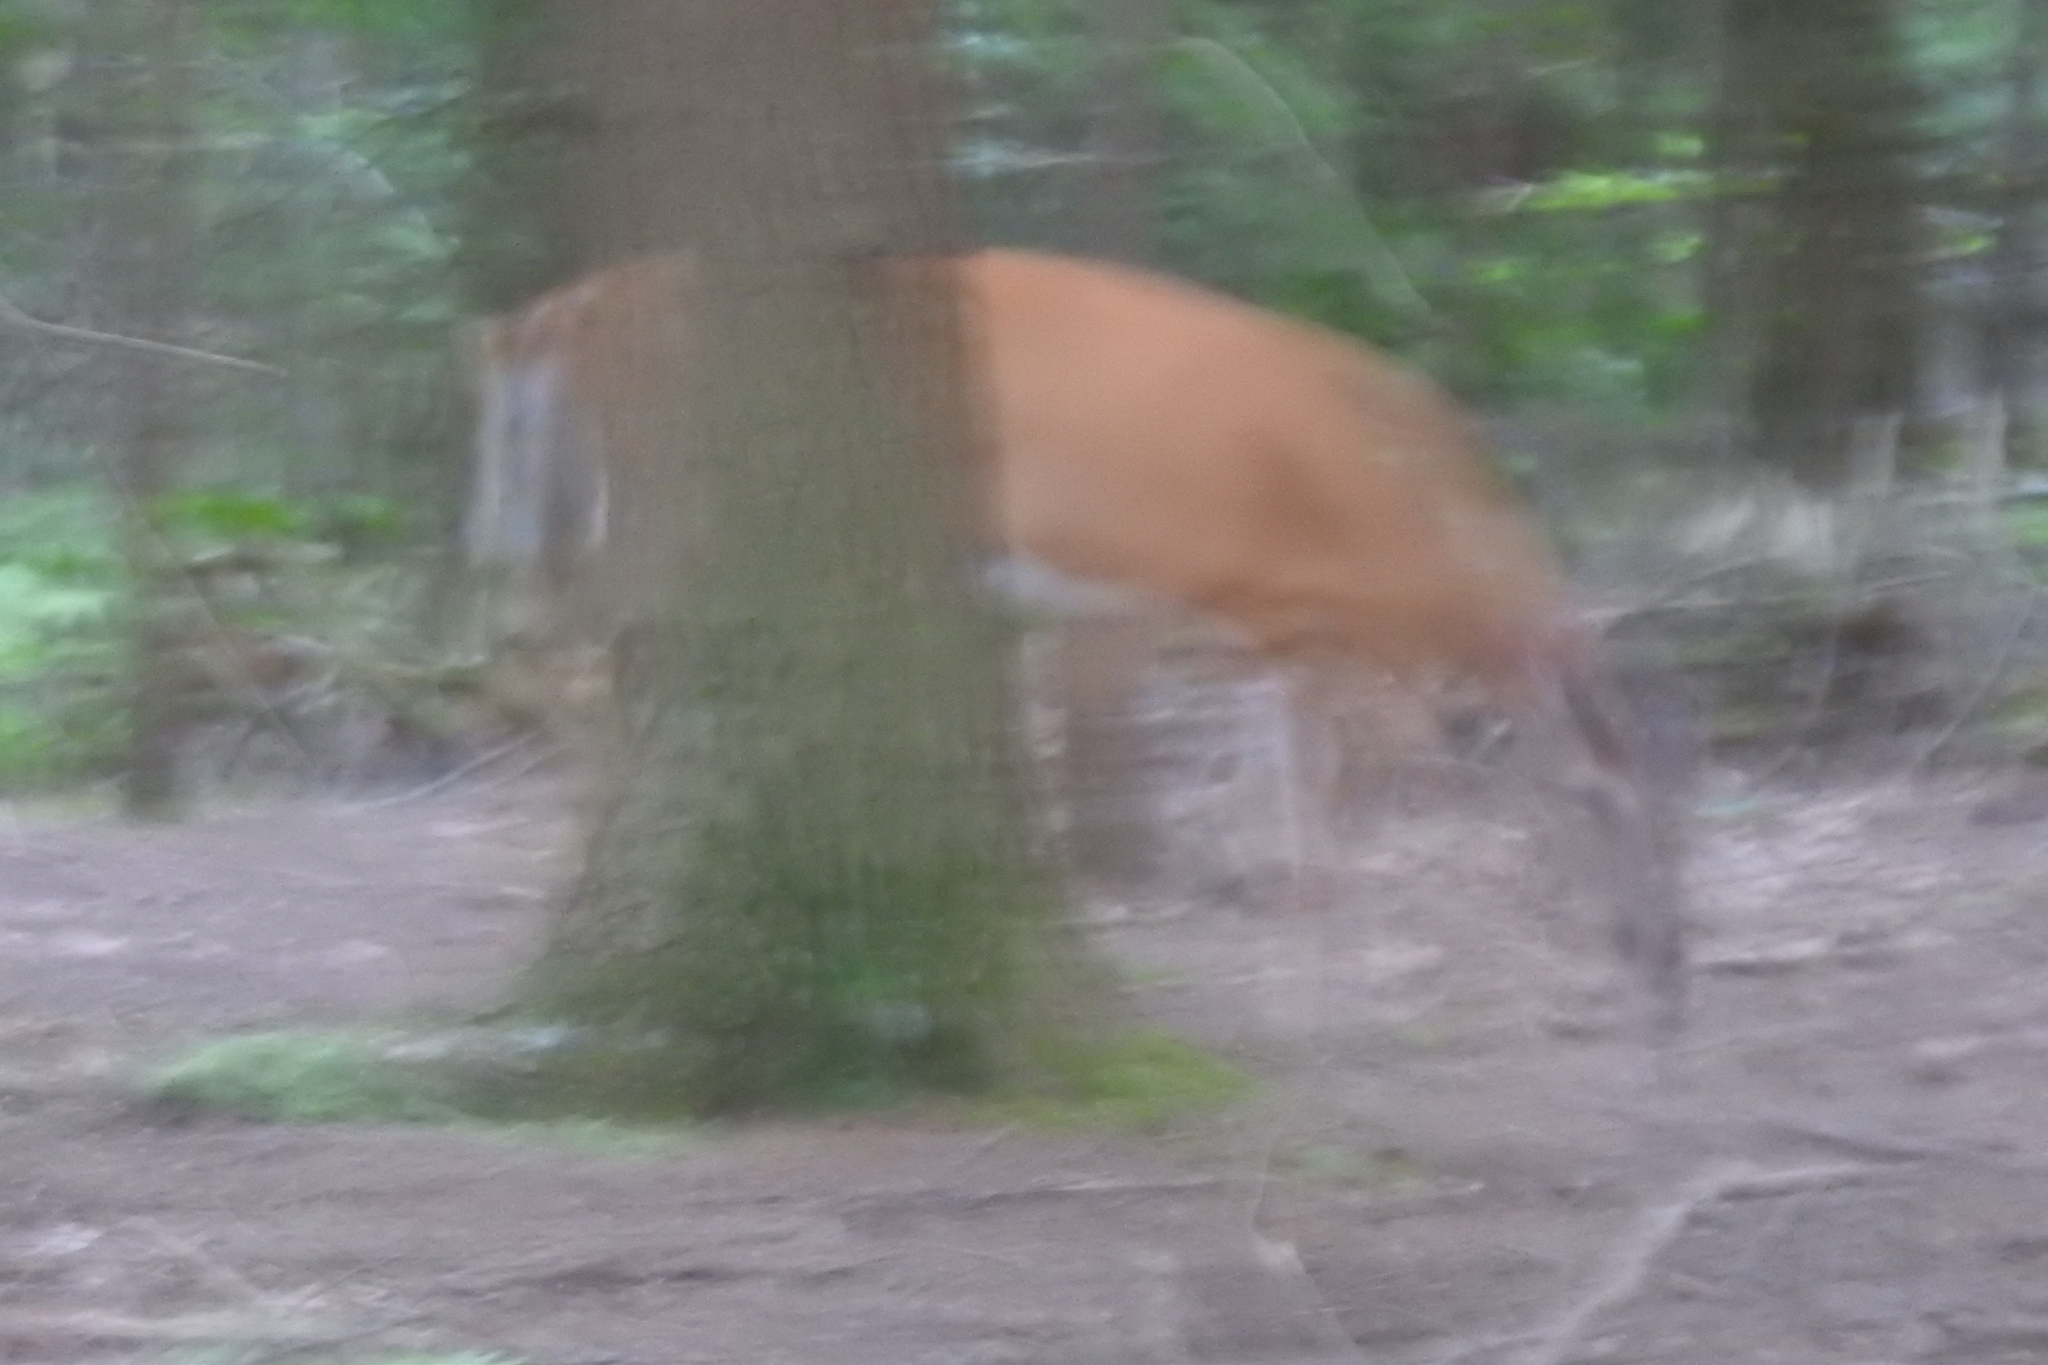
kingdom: Animalia
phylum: Chordata
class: Mammalia
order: Artiodactyla
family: Cervidae
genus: Odocoileus
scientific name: Odocoileus virginianus
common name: White-tailed deer
